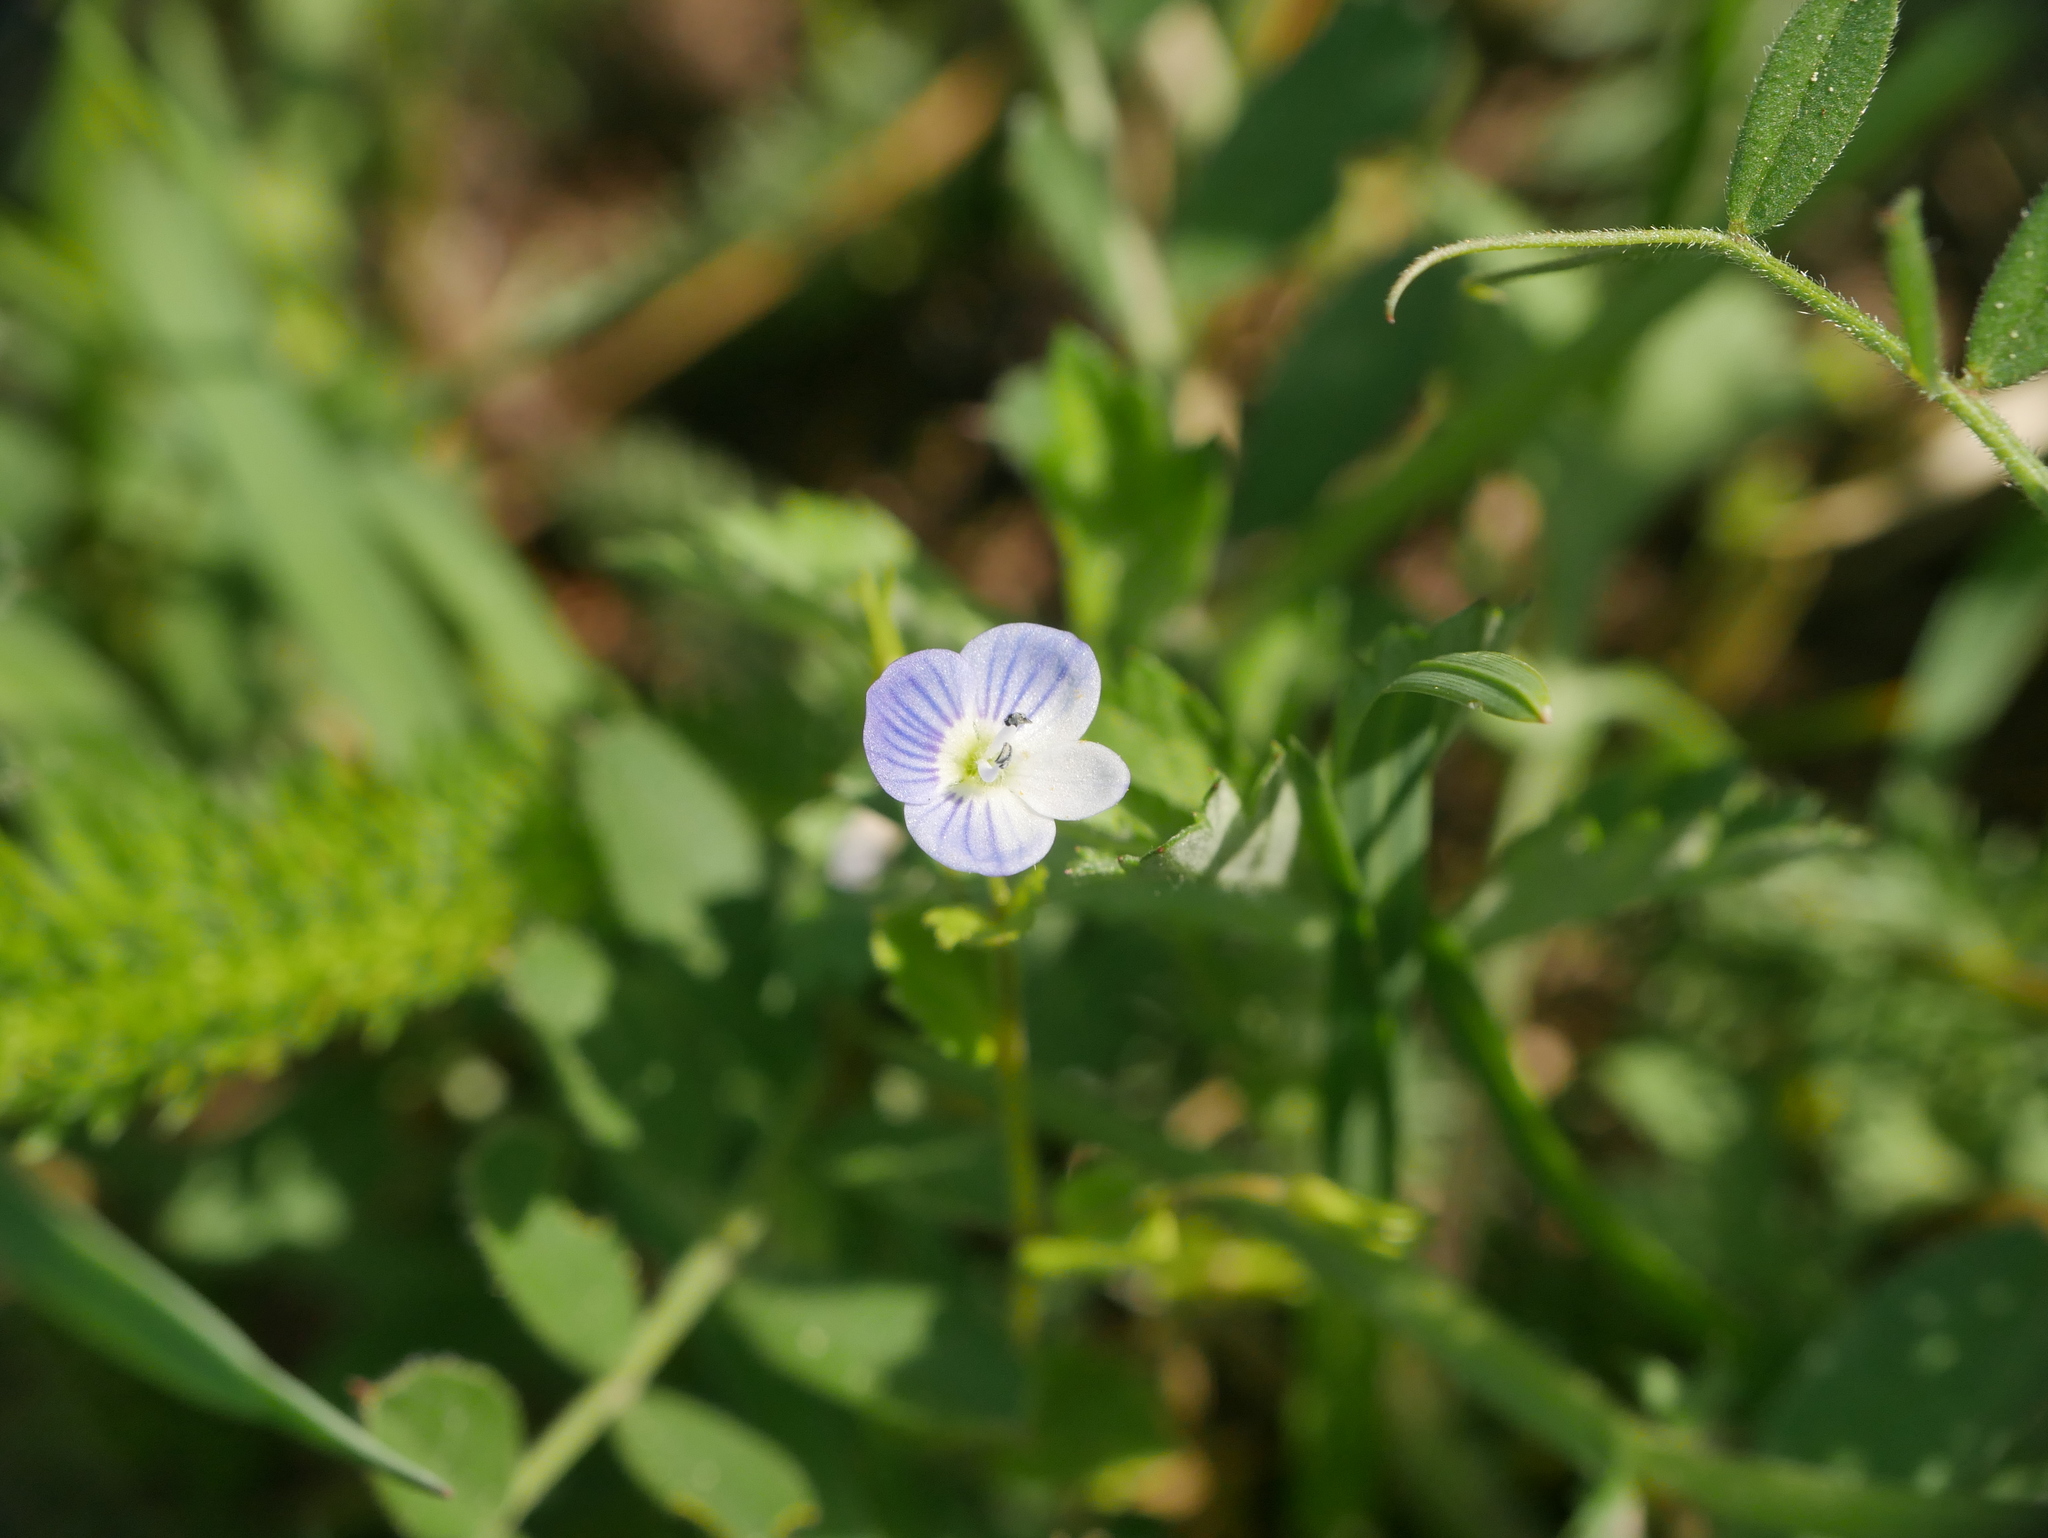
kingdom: Plantae
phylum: Tracheophyta
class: Magnoliopsida
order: Lamiales
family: Plantaginaceae
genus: Veronica
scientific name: Veronica persica
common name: Common field-speedwell
